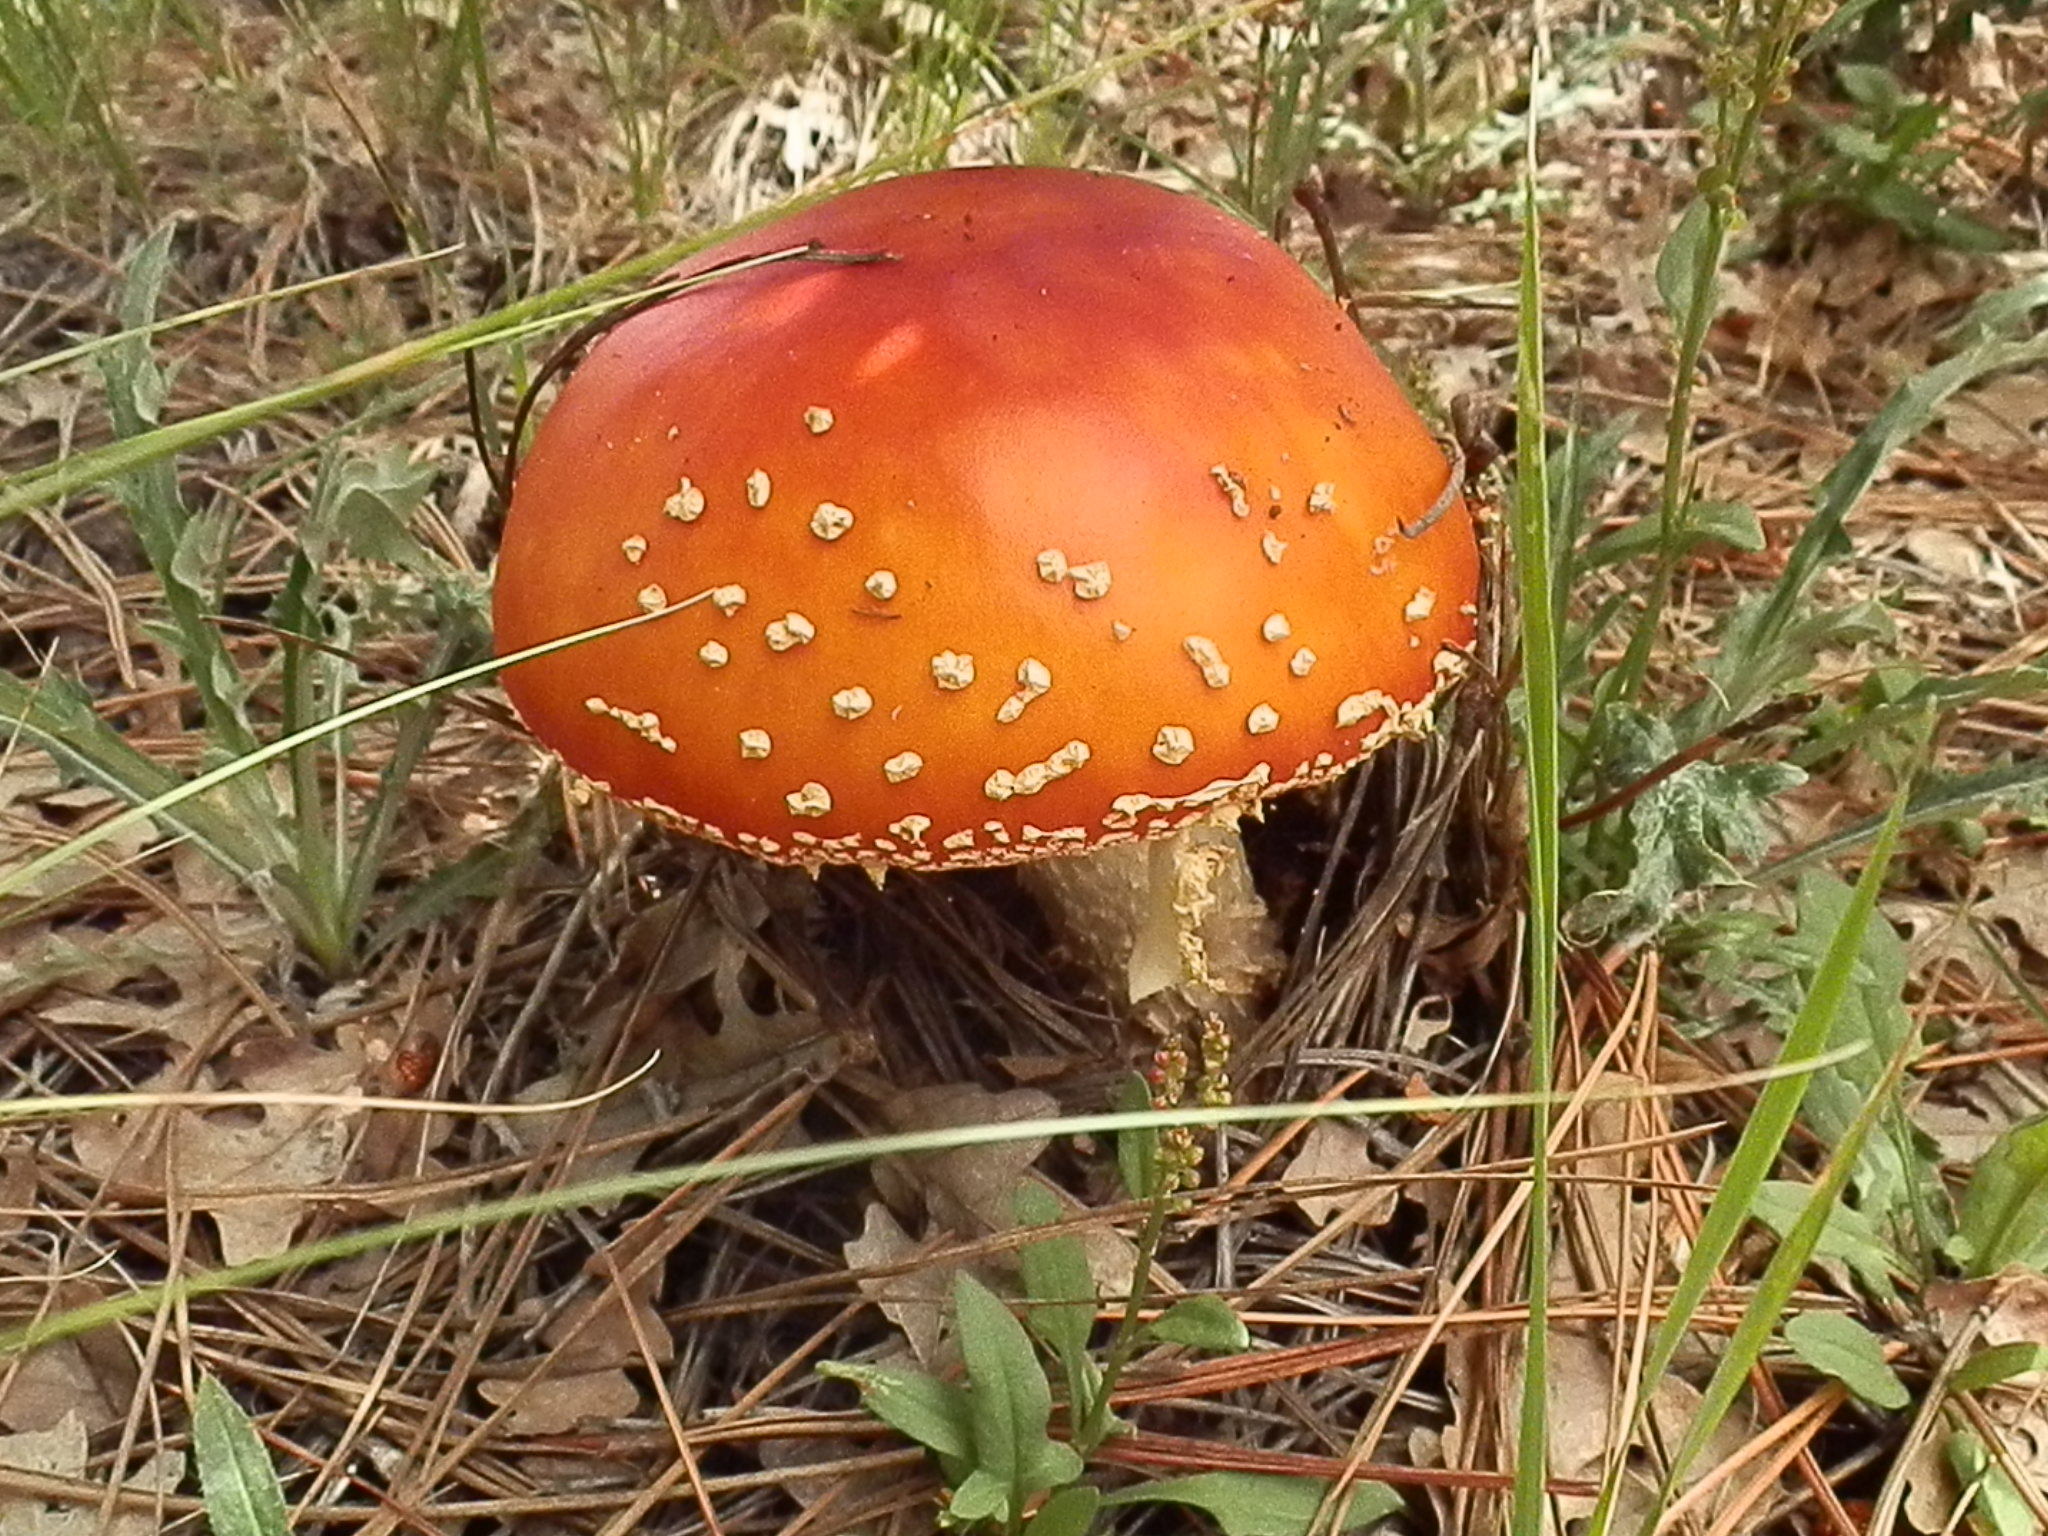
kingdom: Fungi
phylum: Basidiomycota
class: Agaricomycetes
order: Agaricales
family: Amanitaceae
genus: Amanita
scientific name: Amanita muscaria
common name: Fly agaric
